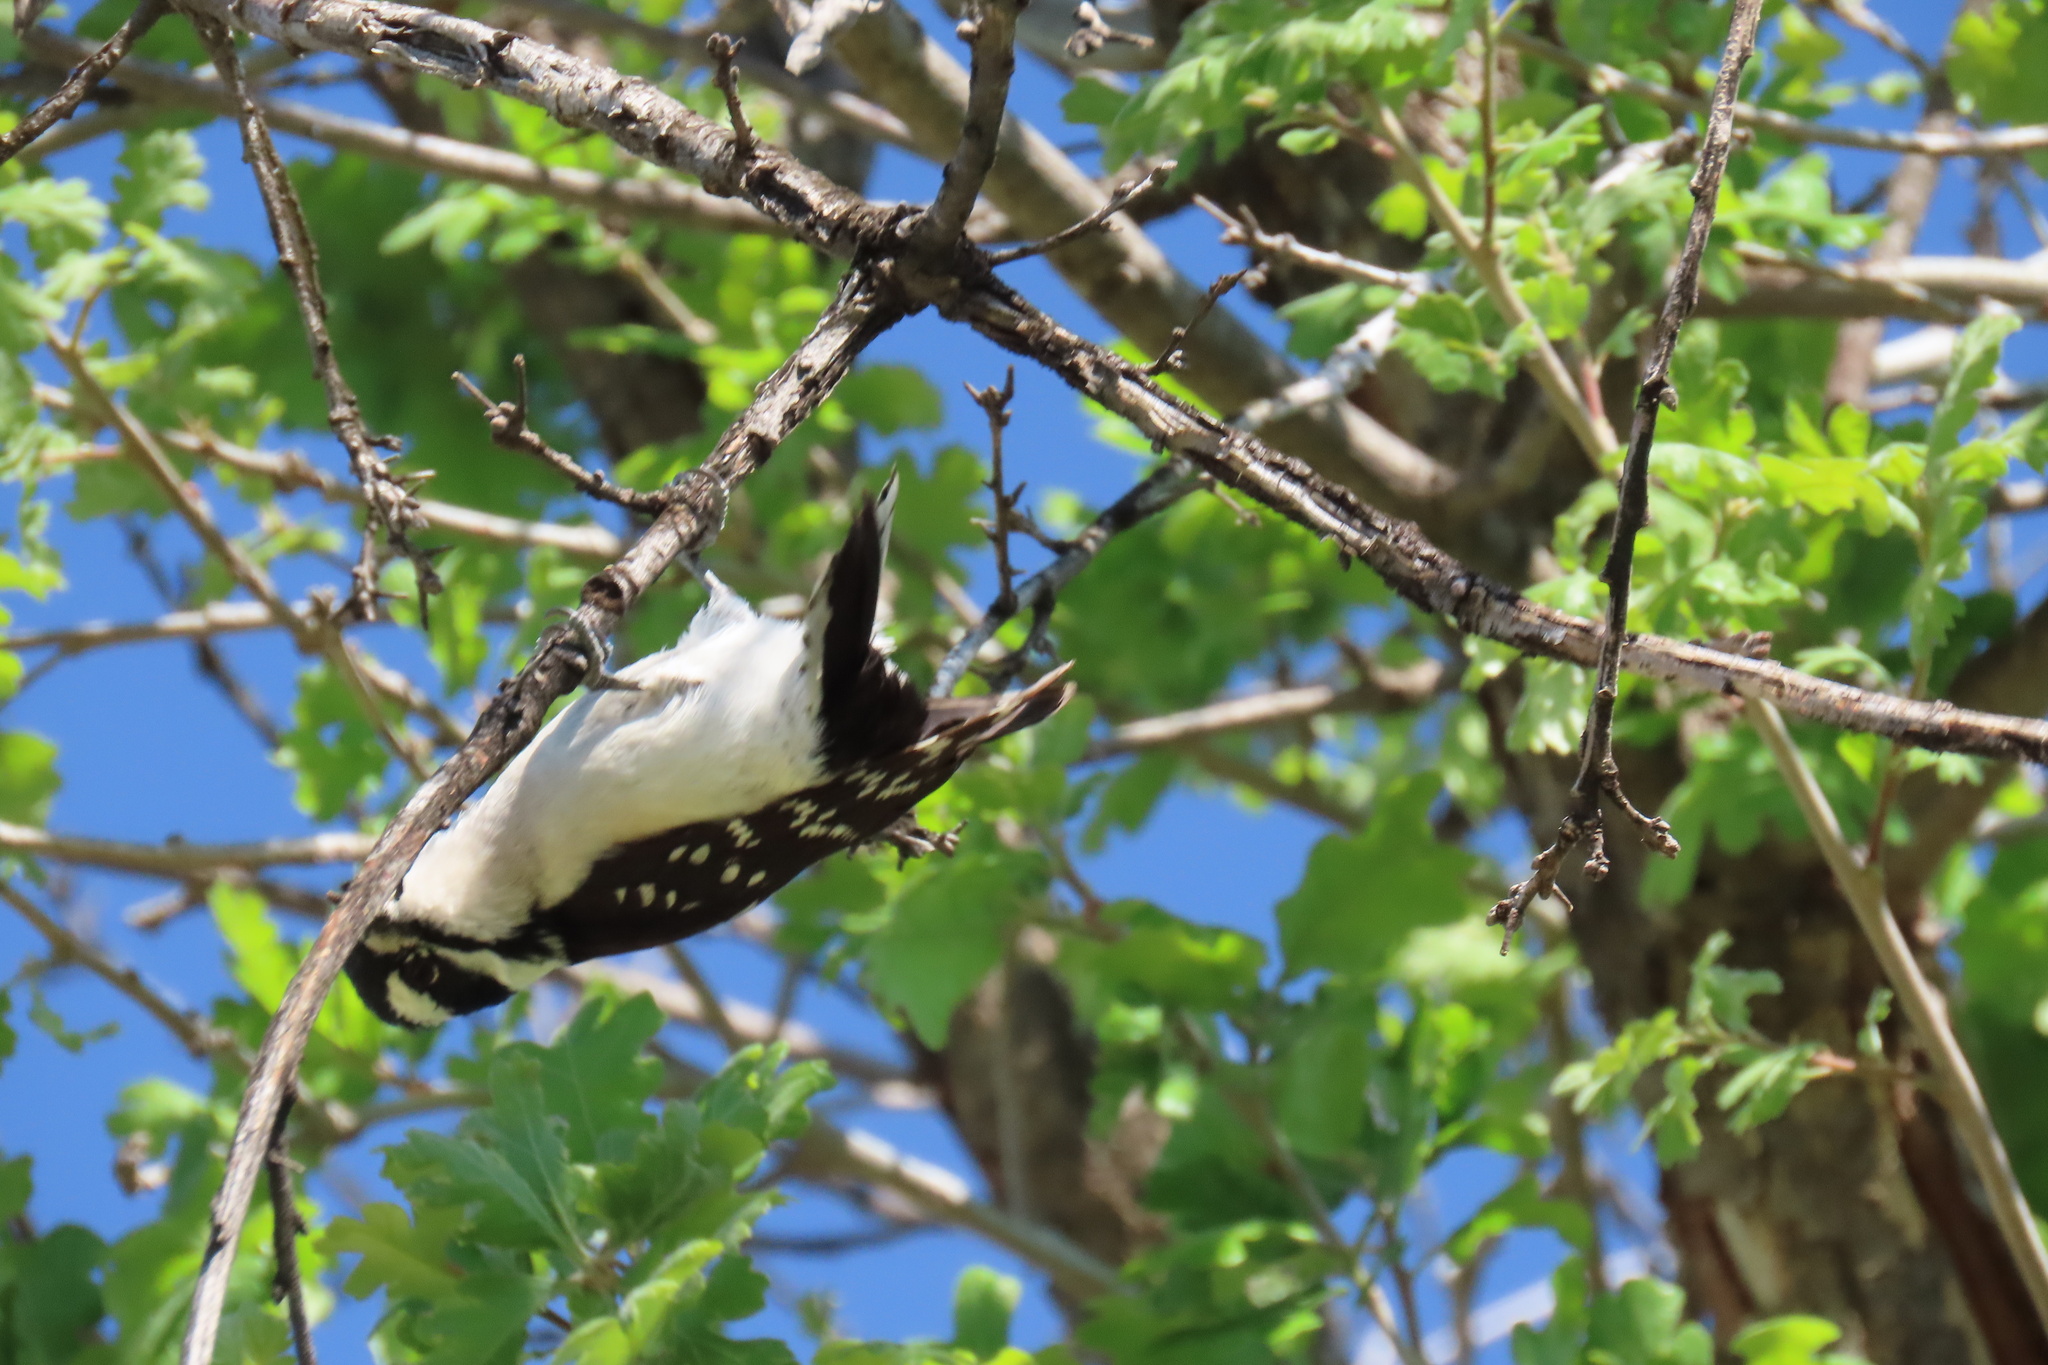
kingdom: Animalia
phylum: Chordata
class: Aves
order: Piciformes
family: Picidae
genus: Dryobates
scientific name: Dryobates pubescens
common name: Downy woodpecker
